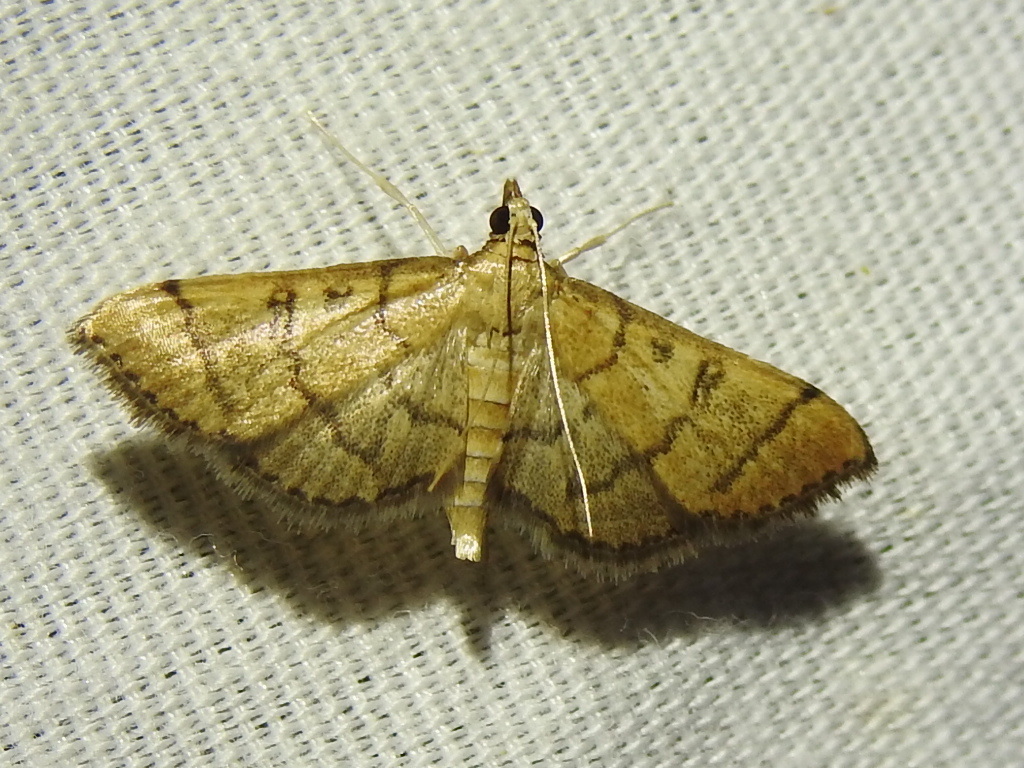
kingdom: Animalia
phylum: Arthropoda
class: Insecta
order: Lepidoptera
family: Crambidae
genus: Lamprosema
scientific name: Lamprosema Blepharomastix ranalis
